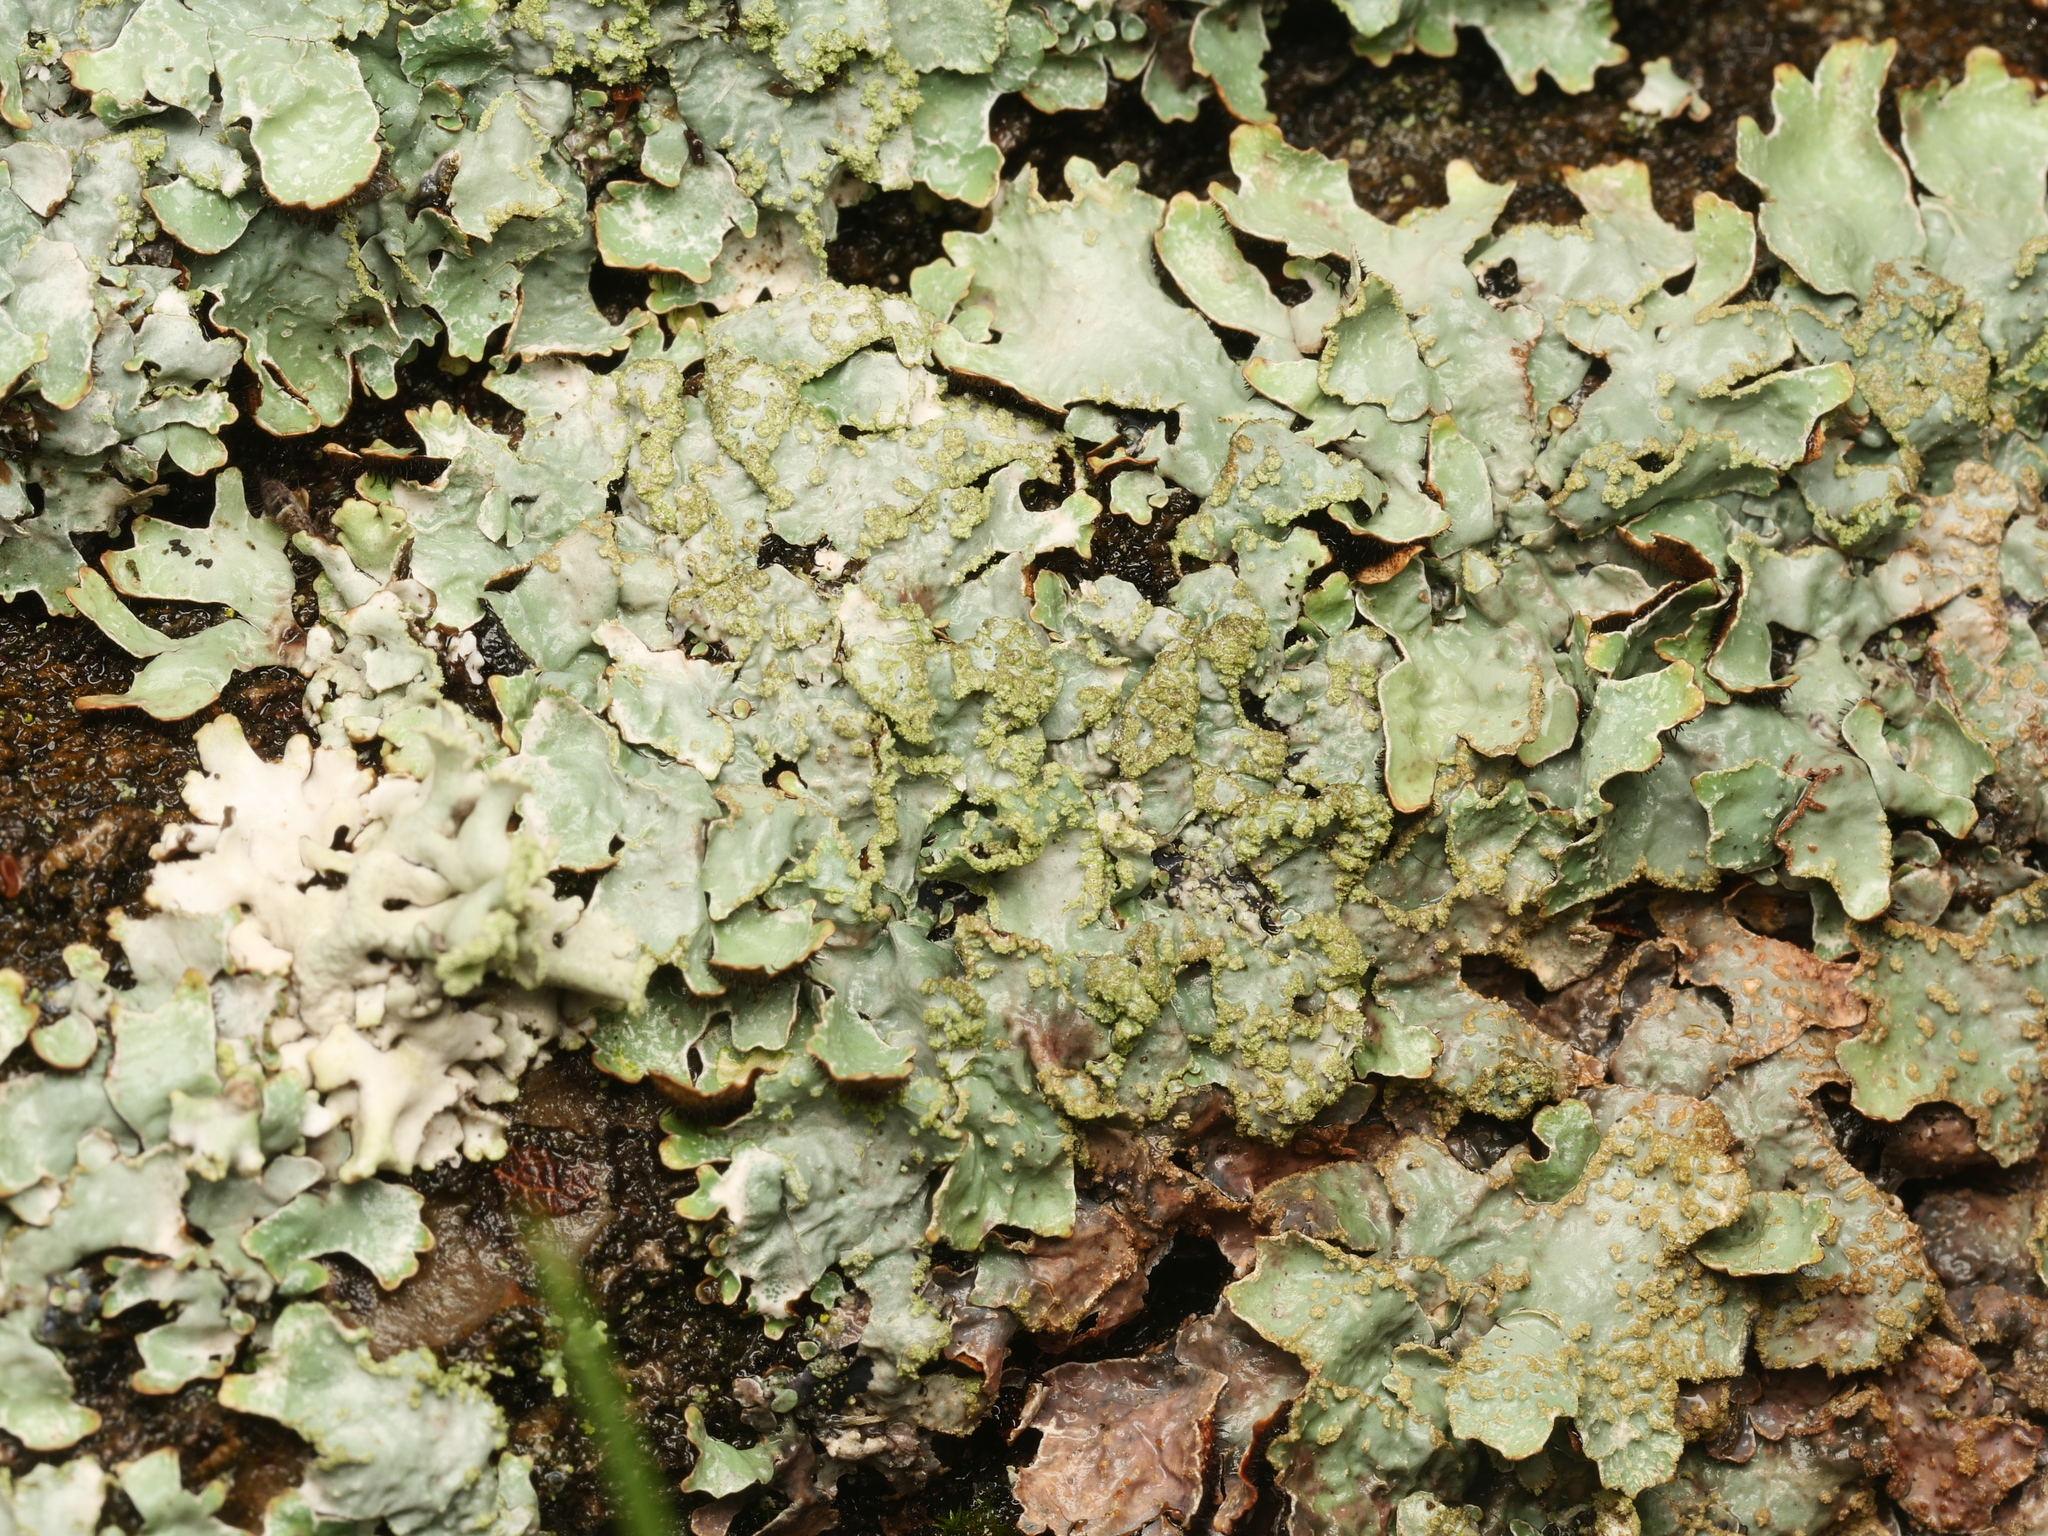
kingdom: Fungi
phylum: Ascomycota
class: Lecanoromycetes
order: Lecanorales
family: Parmeliaceae
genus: Parmelia
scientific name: Parmelia sulcata
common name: Netted shield lichen
